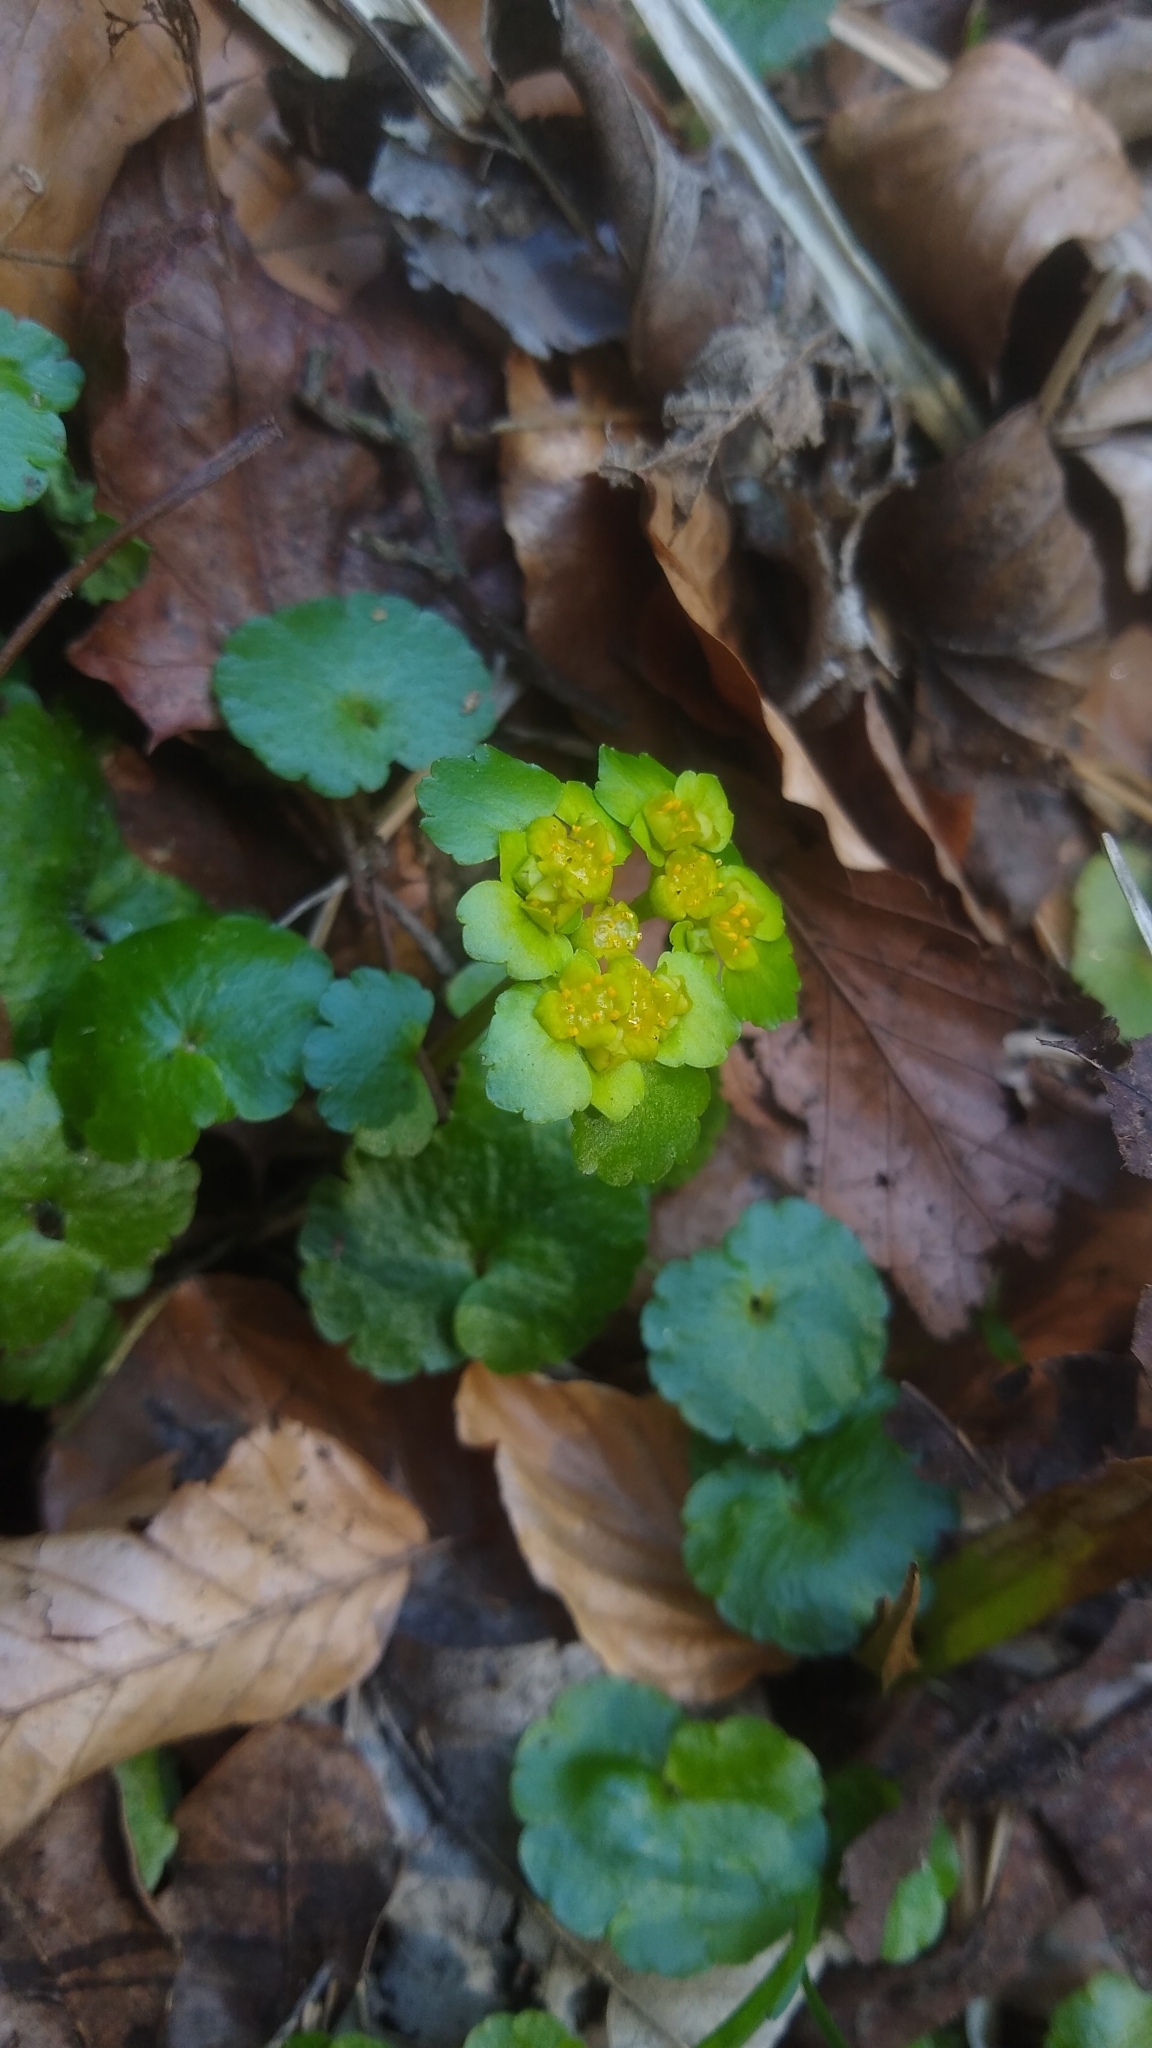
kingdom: Plantae
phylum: Tracheophyta
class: Magnoliopsida
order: Saxifragales
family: Saxifragaceae
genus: Chrysosplenium
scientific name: Chrysosplenium alternifolium
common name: Alternate-leaved golden-saxifrage
